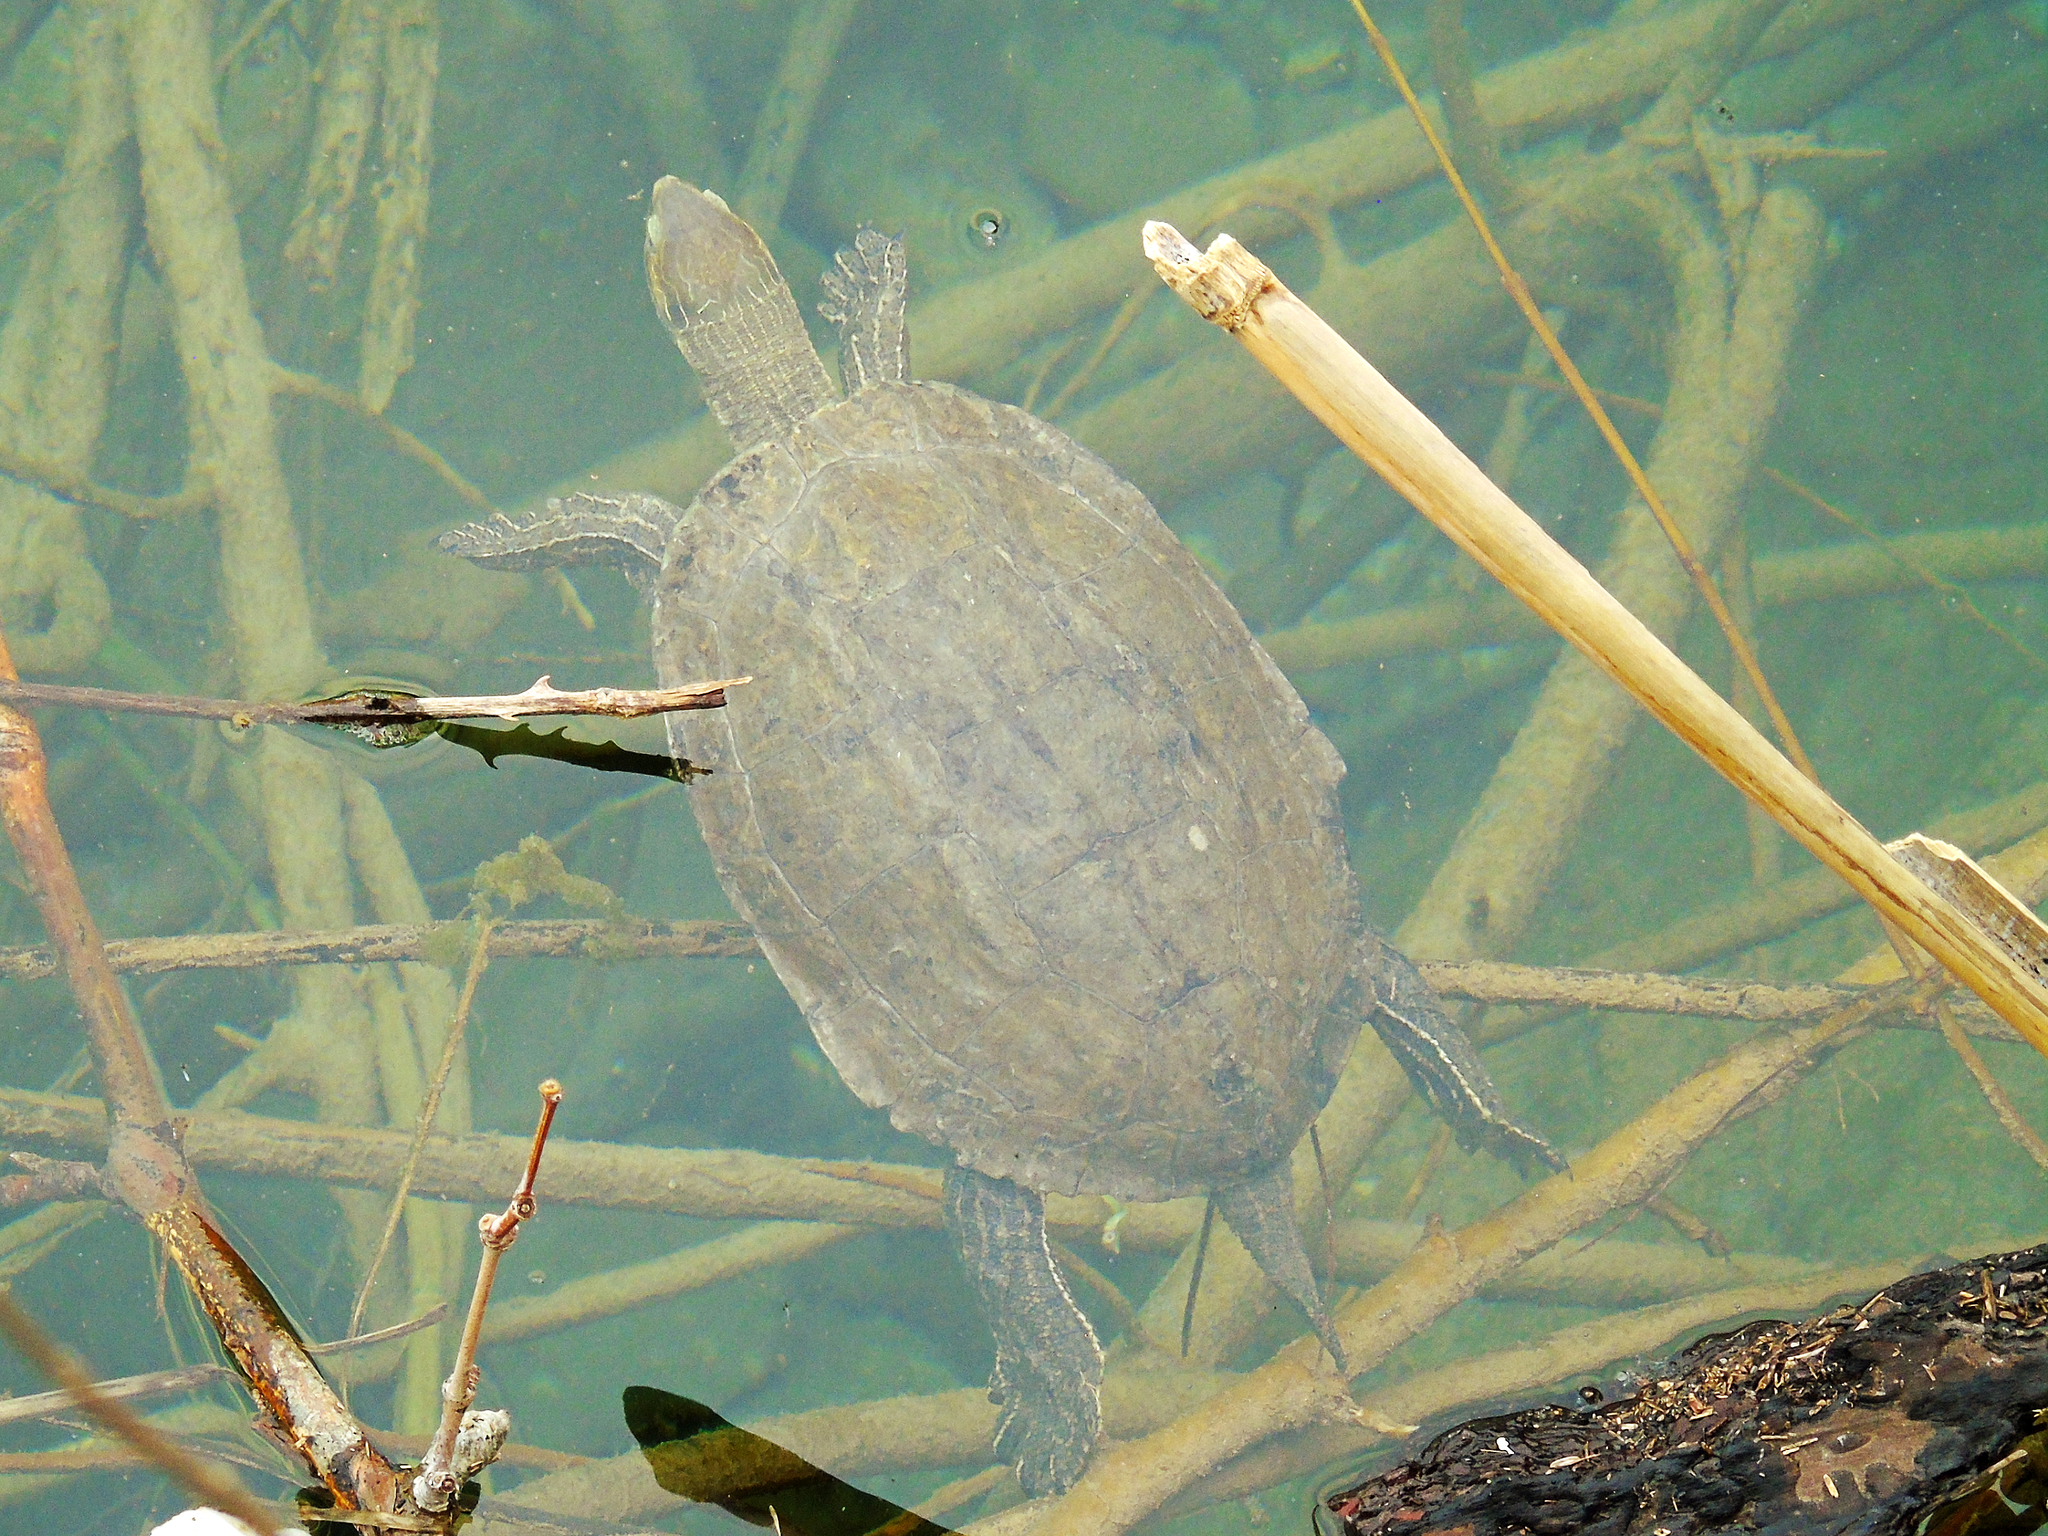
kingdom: Animalia
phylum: Chordata
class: Testudines
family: Geoemydidae
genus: Mauremys
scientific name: Mauremys rivulata
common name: Western caspian turtle
